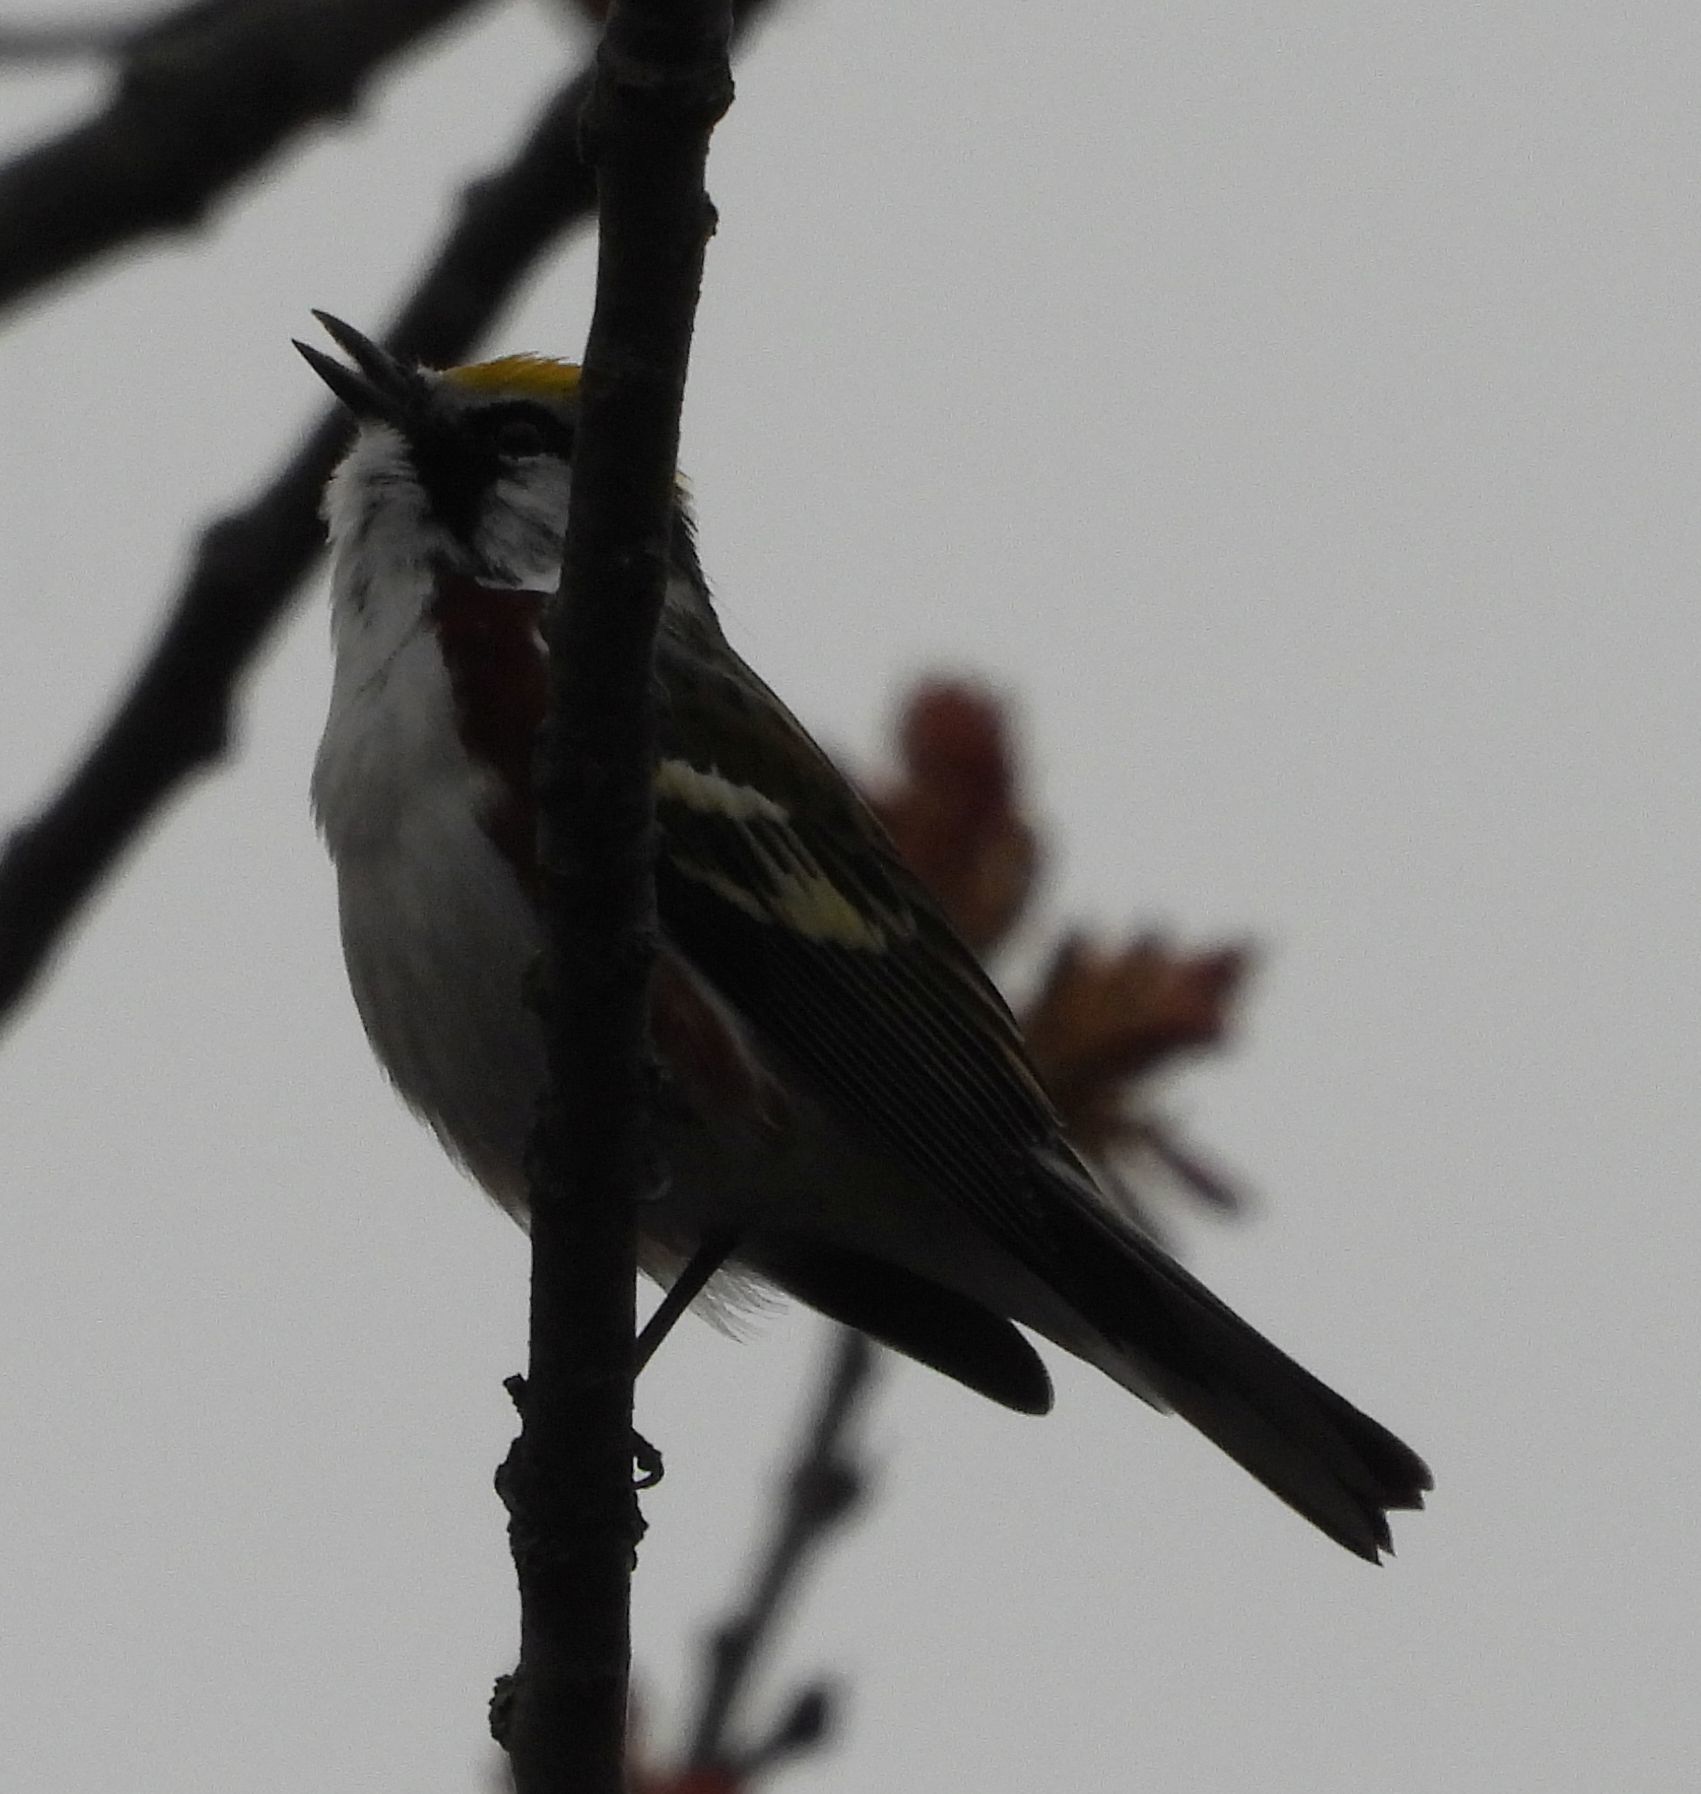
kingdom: Animalia
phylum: Chordata
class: Aves
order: Passeriformes
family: Parulidae
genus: Setophaga
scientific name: Setophaga pensylvanica
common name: Chestnut-sided warbler
